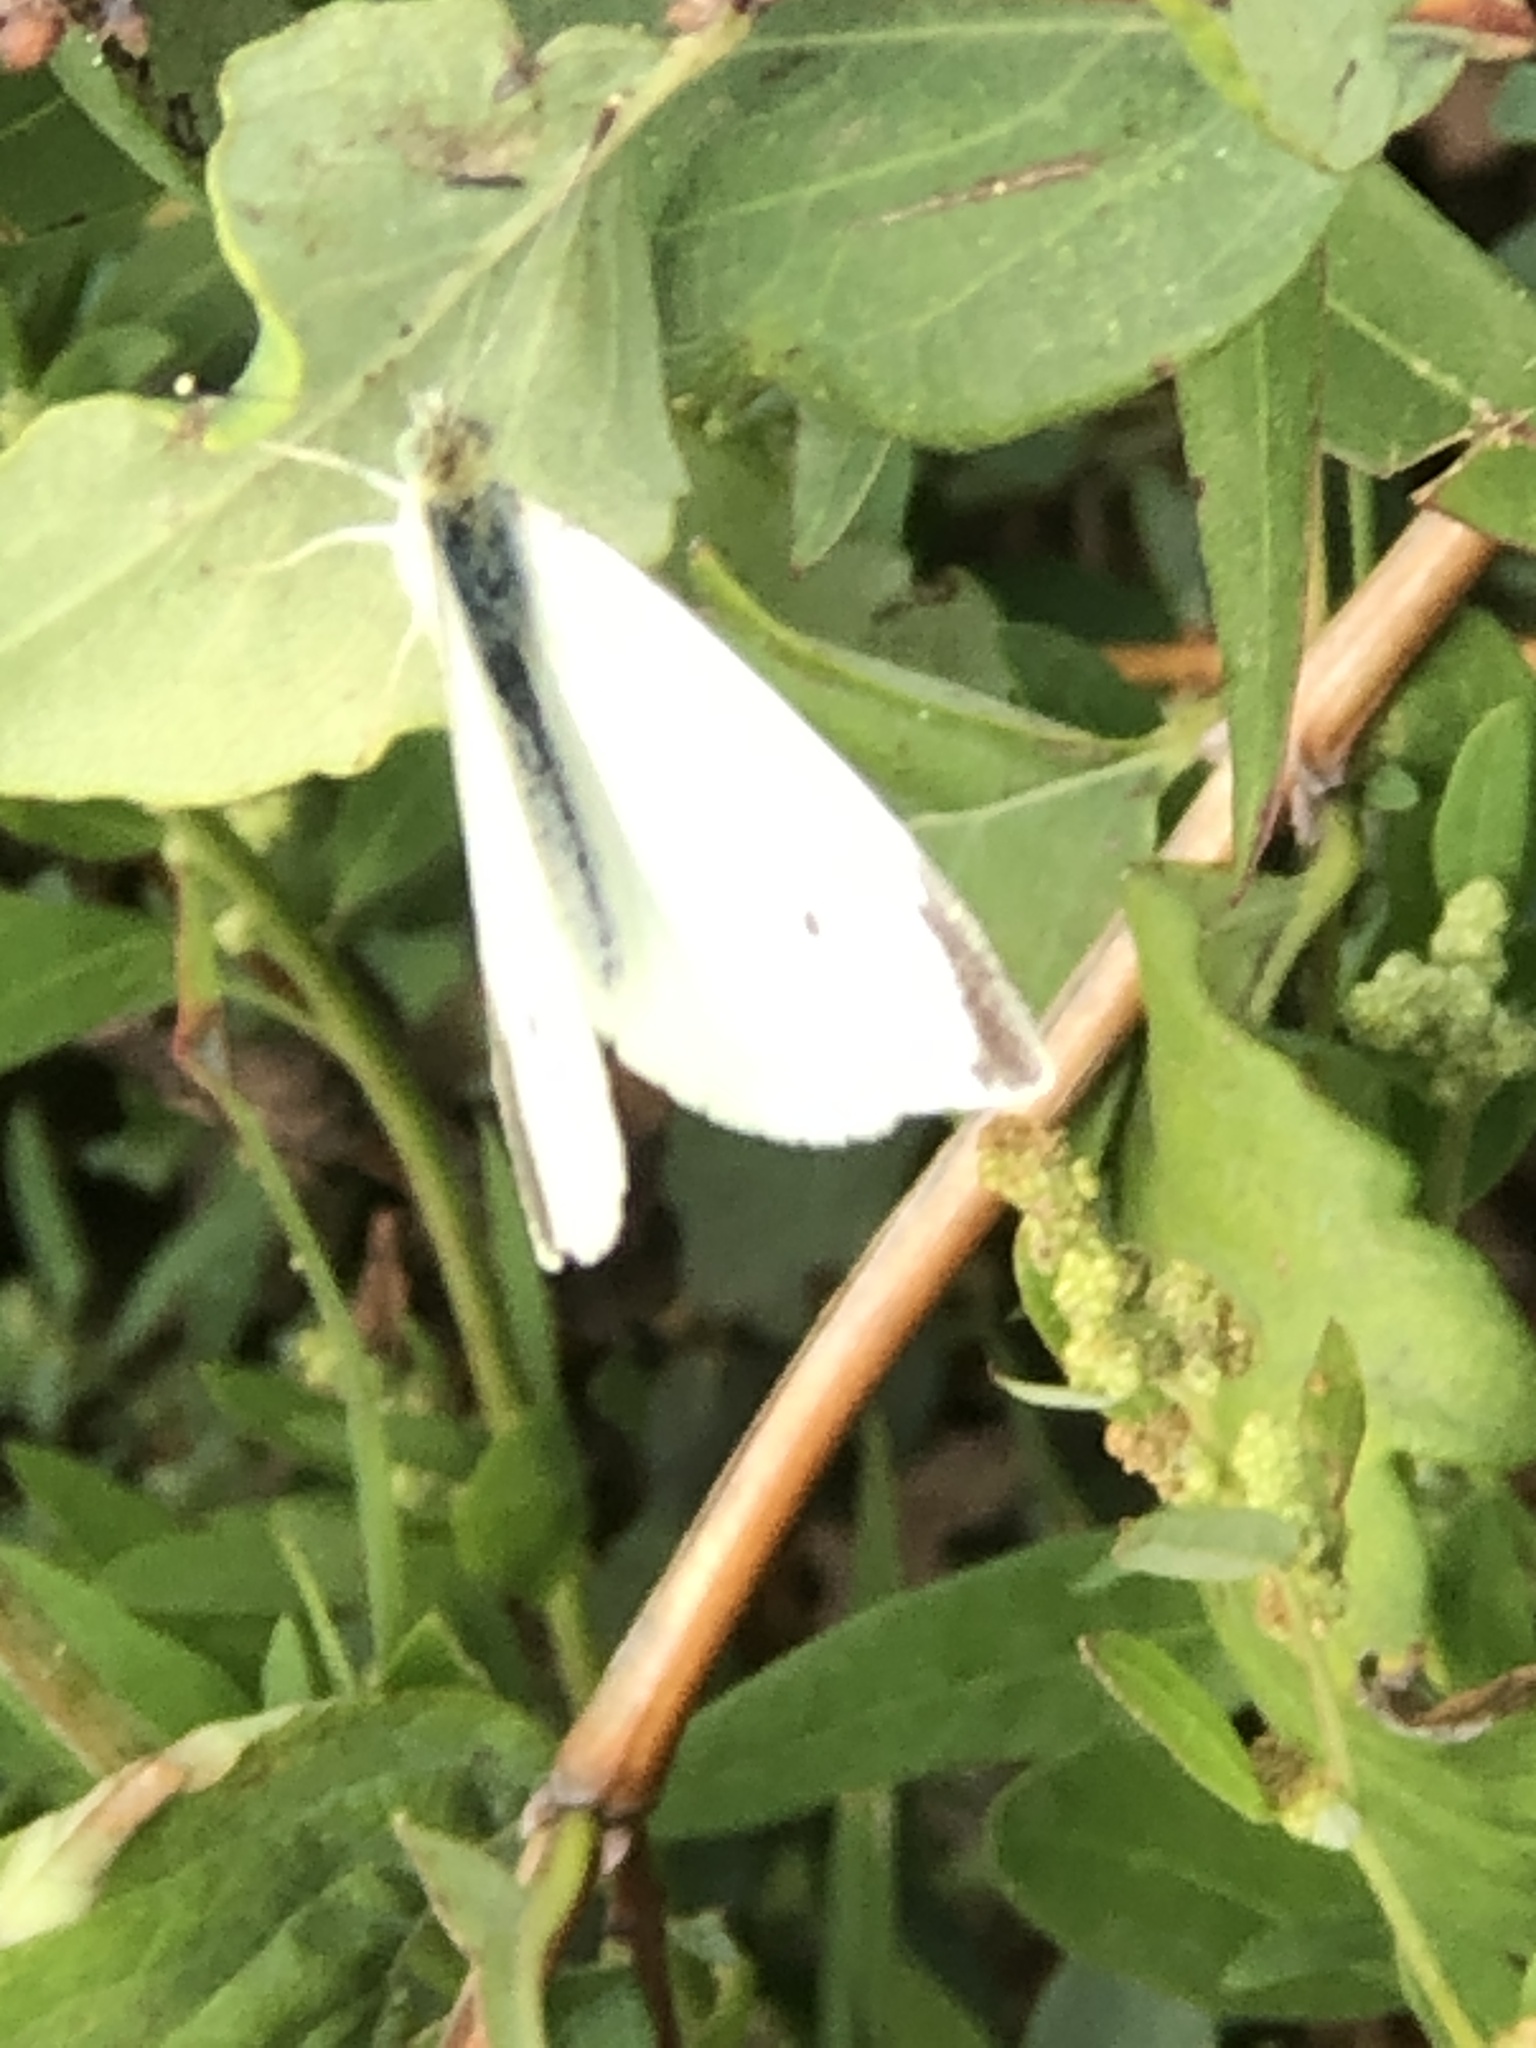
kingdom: Animalia
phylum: Arthropoda
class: Insecta
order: Lepidoptera
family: Pieridae
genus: Pieris
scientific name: Pieris rapae
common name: Small white
